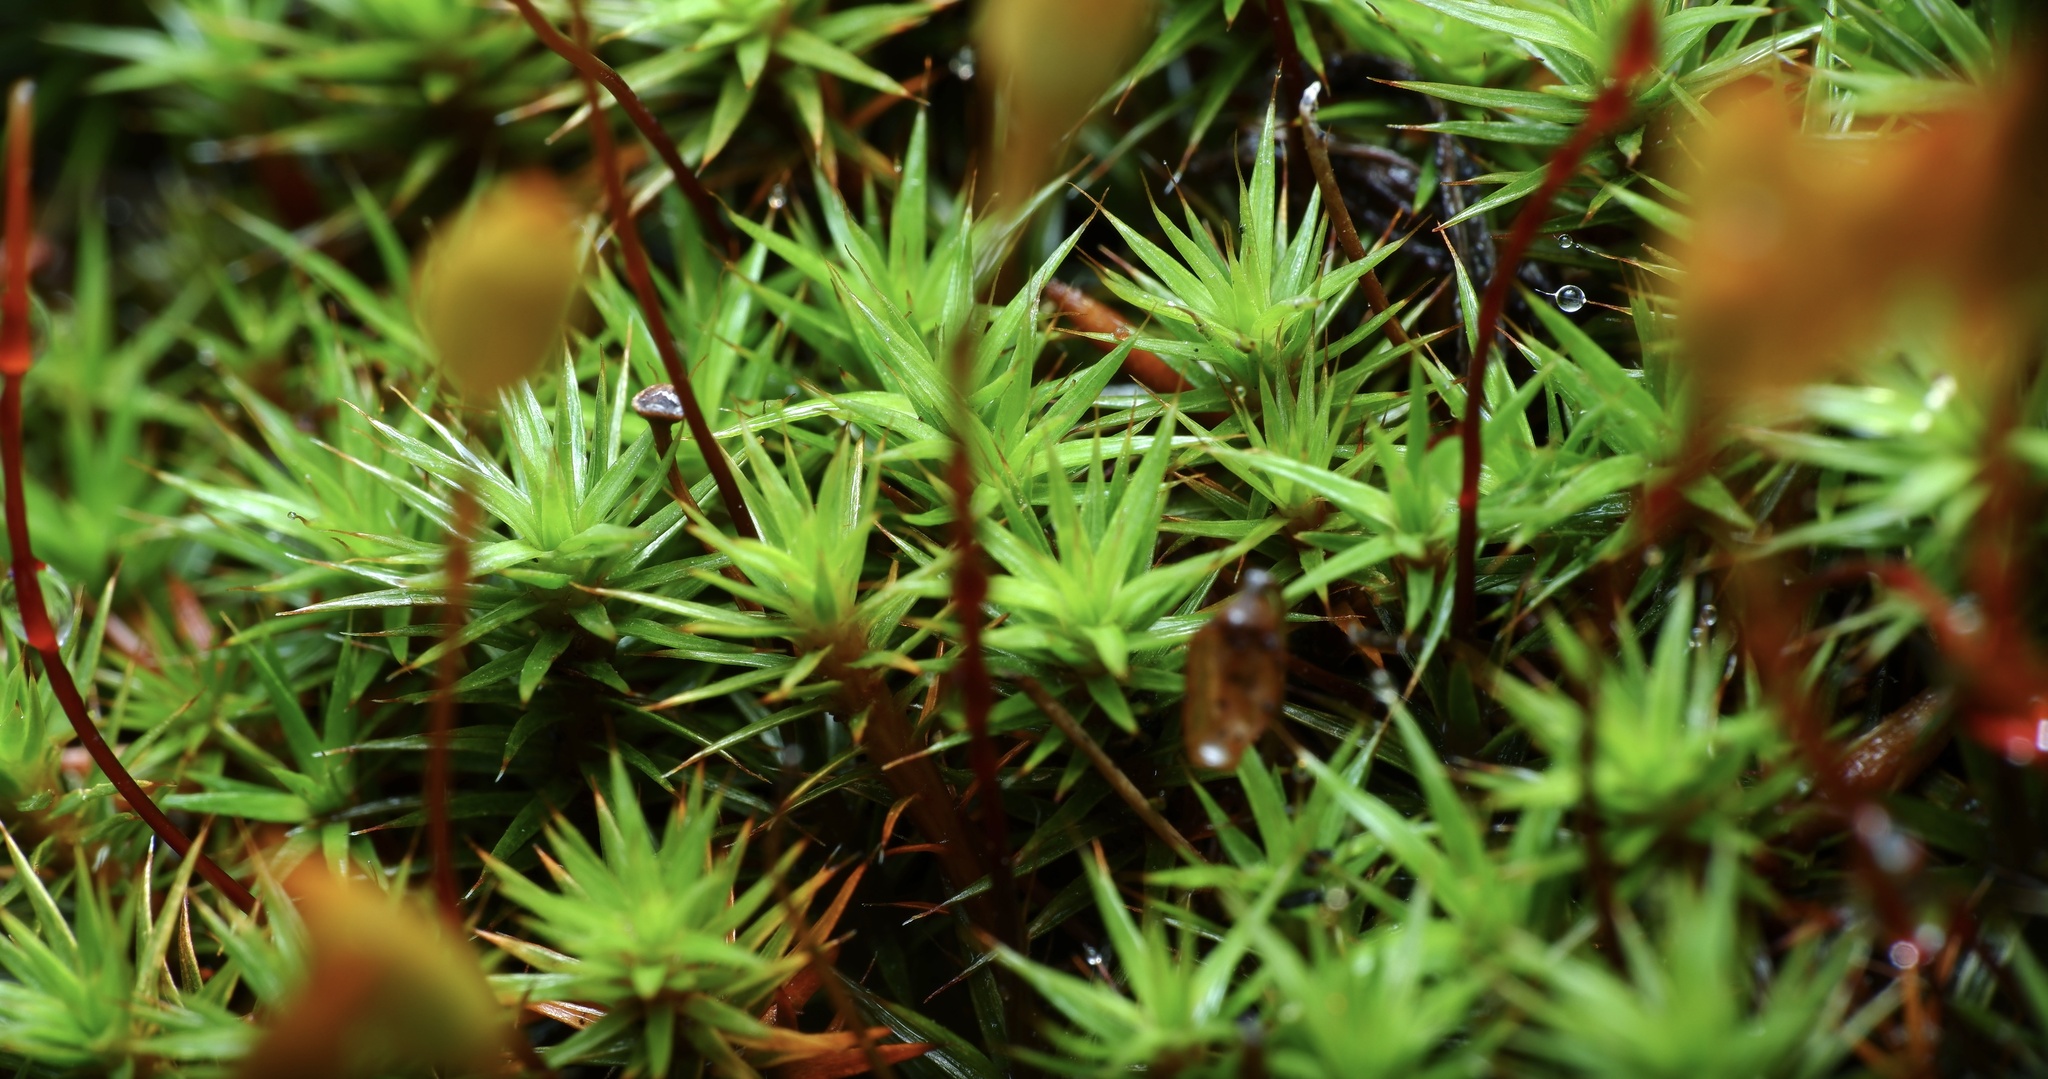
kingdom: Plantae
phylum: Bryophyta
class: Polytrichopsida
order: Polytrichales
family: Polytrichaceae
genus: Polytrichum
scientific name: Polytrichum juniperinum
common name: Juniper haircap moss
